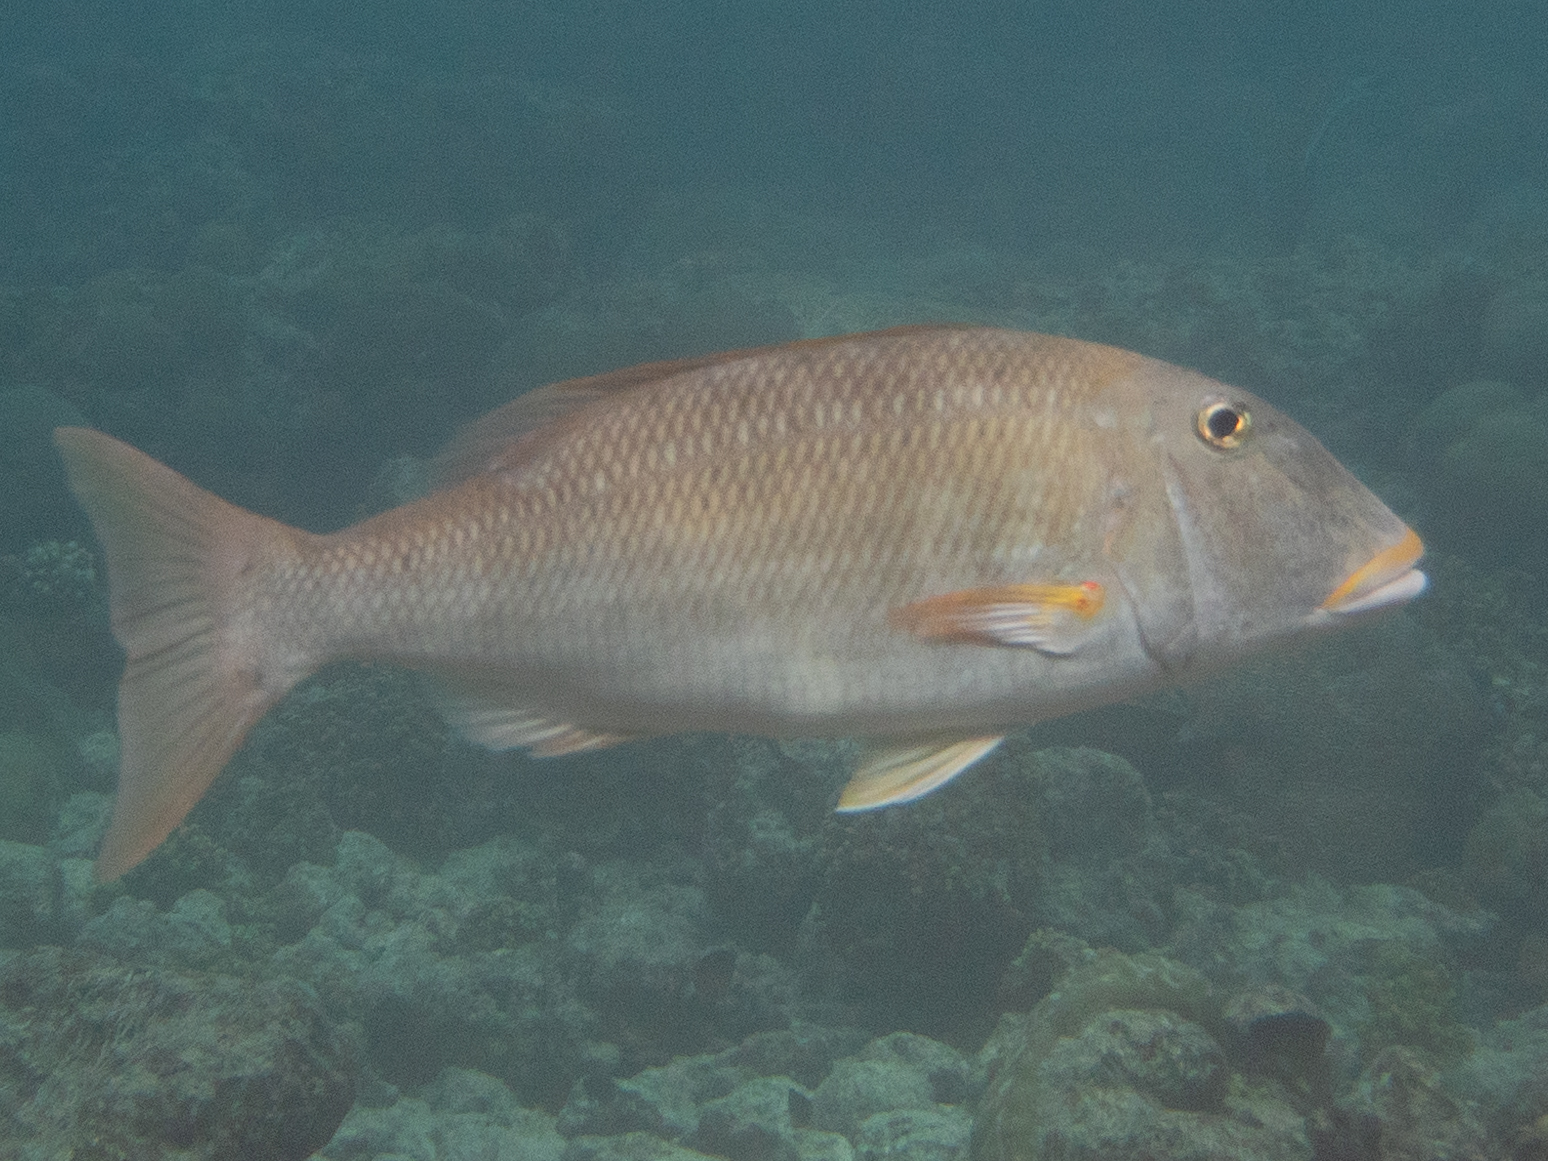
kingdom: Animalia
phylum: Chordata
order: Perciformes
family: Lethrinidae
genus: Lethrinus
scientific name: Lethrinus xanthochilus
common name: Yellowlip emperor
